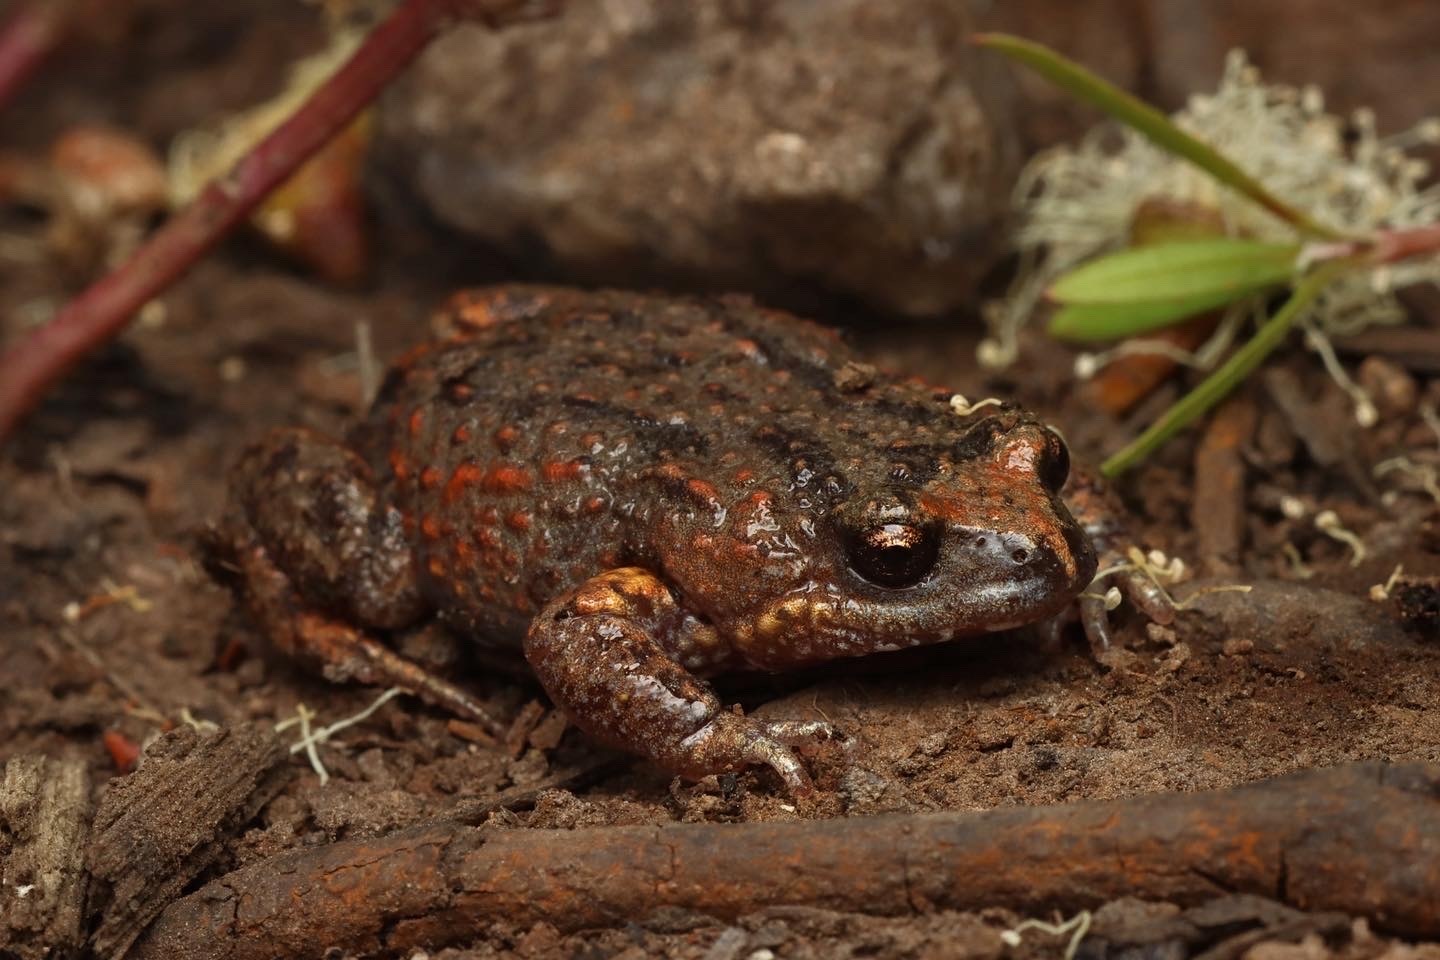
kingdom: Animalia
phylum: Chordata
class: Amphibia
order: Anura
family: Myobatrachidae
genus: Pseudophryne
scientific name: Pseudophryne bibronii
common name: Bibron’s toadlet
